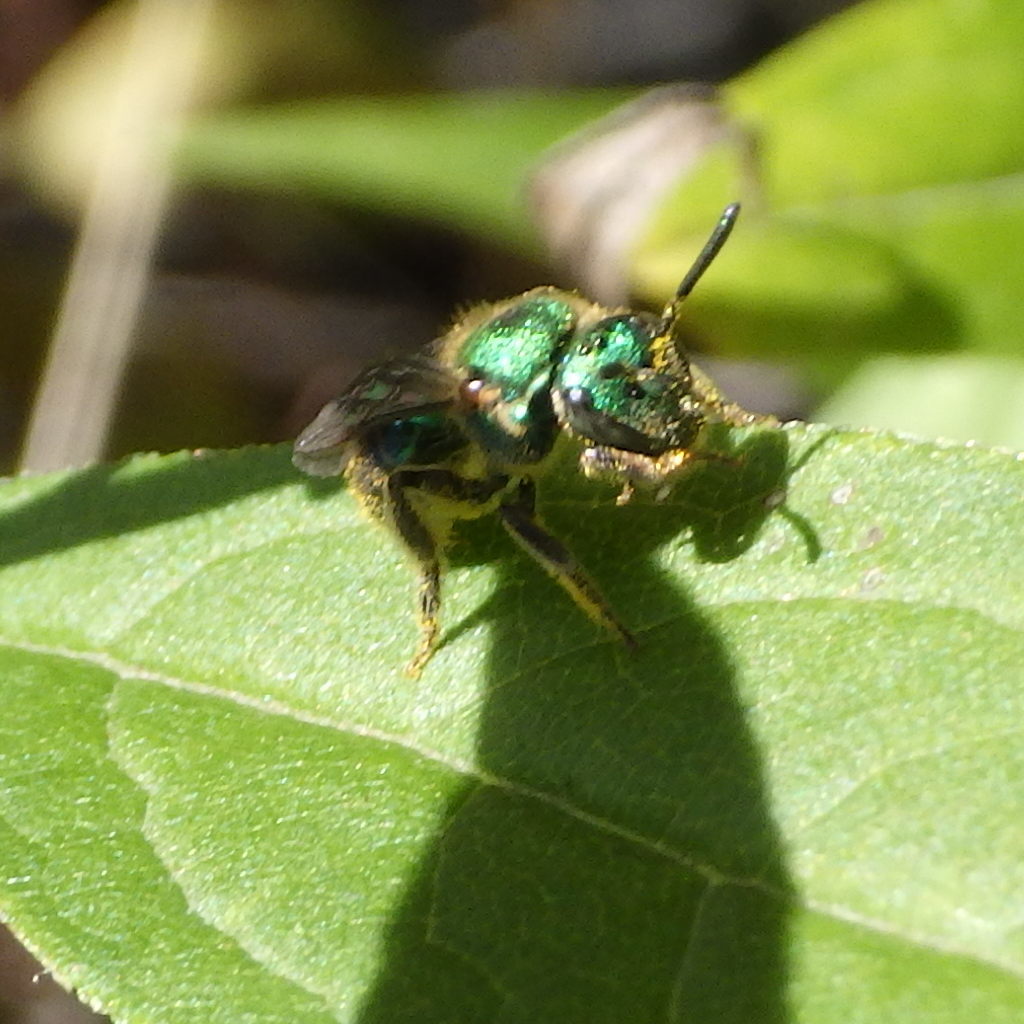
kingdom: Animalia
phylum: Arthropoda
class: Insecta
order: Hymenoptera
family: Halictidae
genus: Augochlorella
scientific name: Augochlorella aurata
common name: Golden sweat bee
